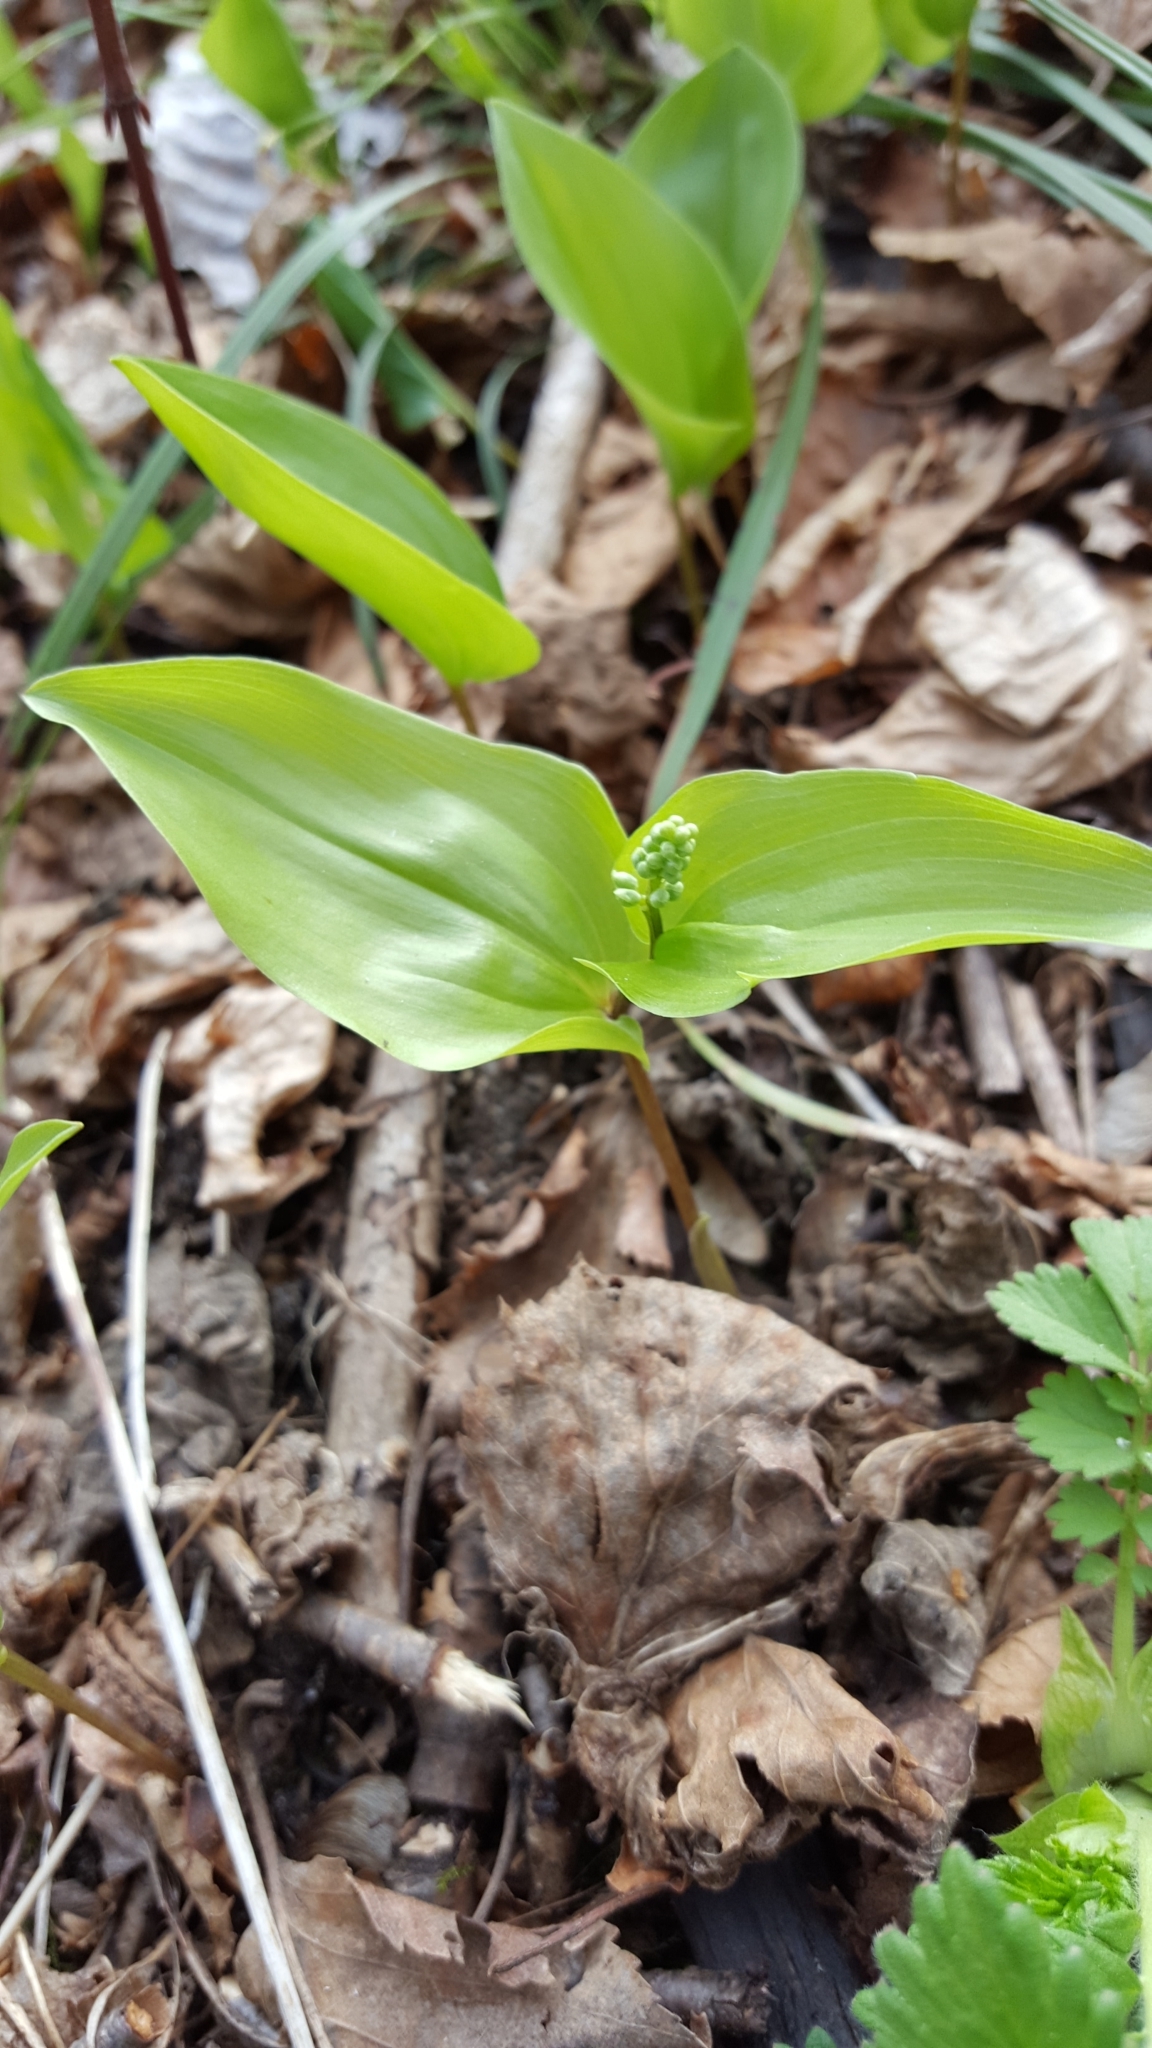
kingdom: Plantae
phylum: Tracheophyta
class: Liliopsida
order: Asparagales
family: Asparagaceae
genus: Maianthemum
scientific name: Maianthemum canadense
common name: False lily-of-the-valley
